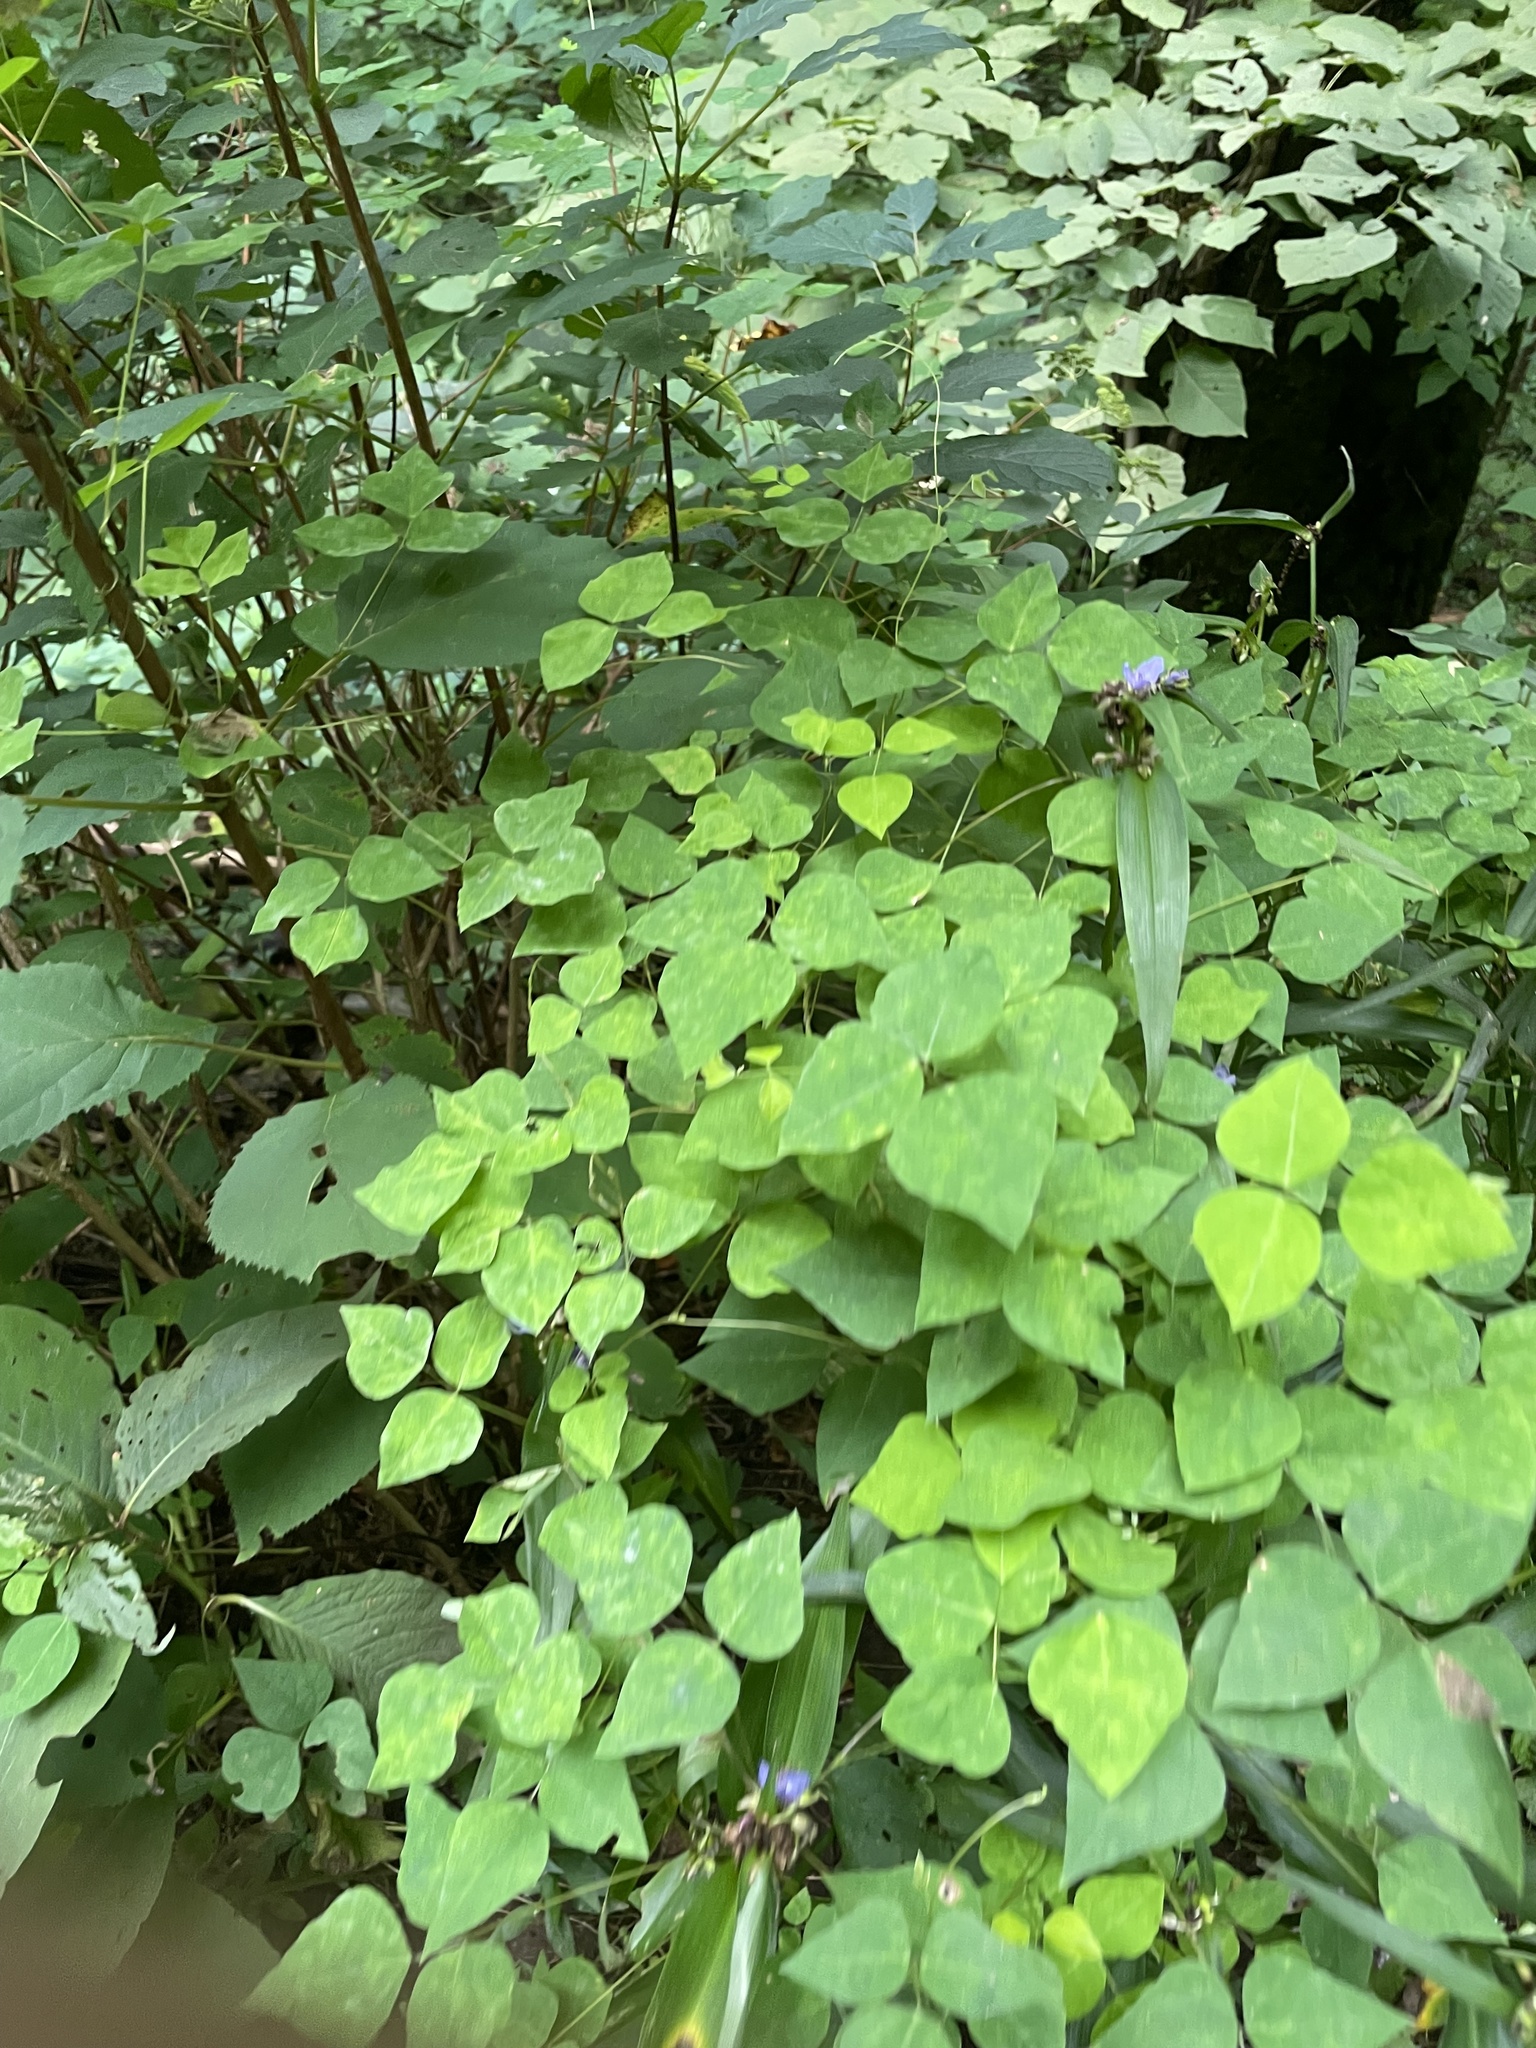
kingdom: Plantae
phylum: Tracheophyta
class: Magnoliopsida
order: Fabales
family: Fabaceae
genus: Amphicarpaea
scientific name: Amphicarpaea bracteata
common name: American hog peanut
